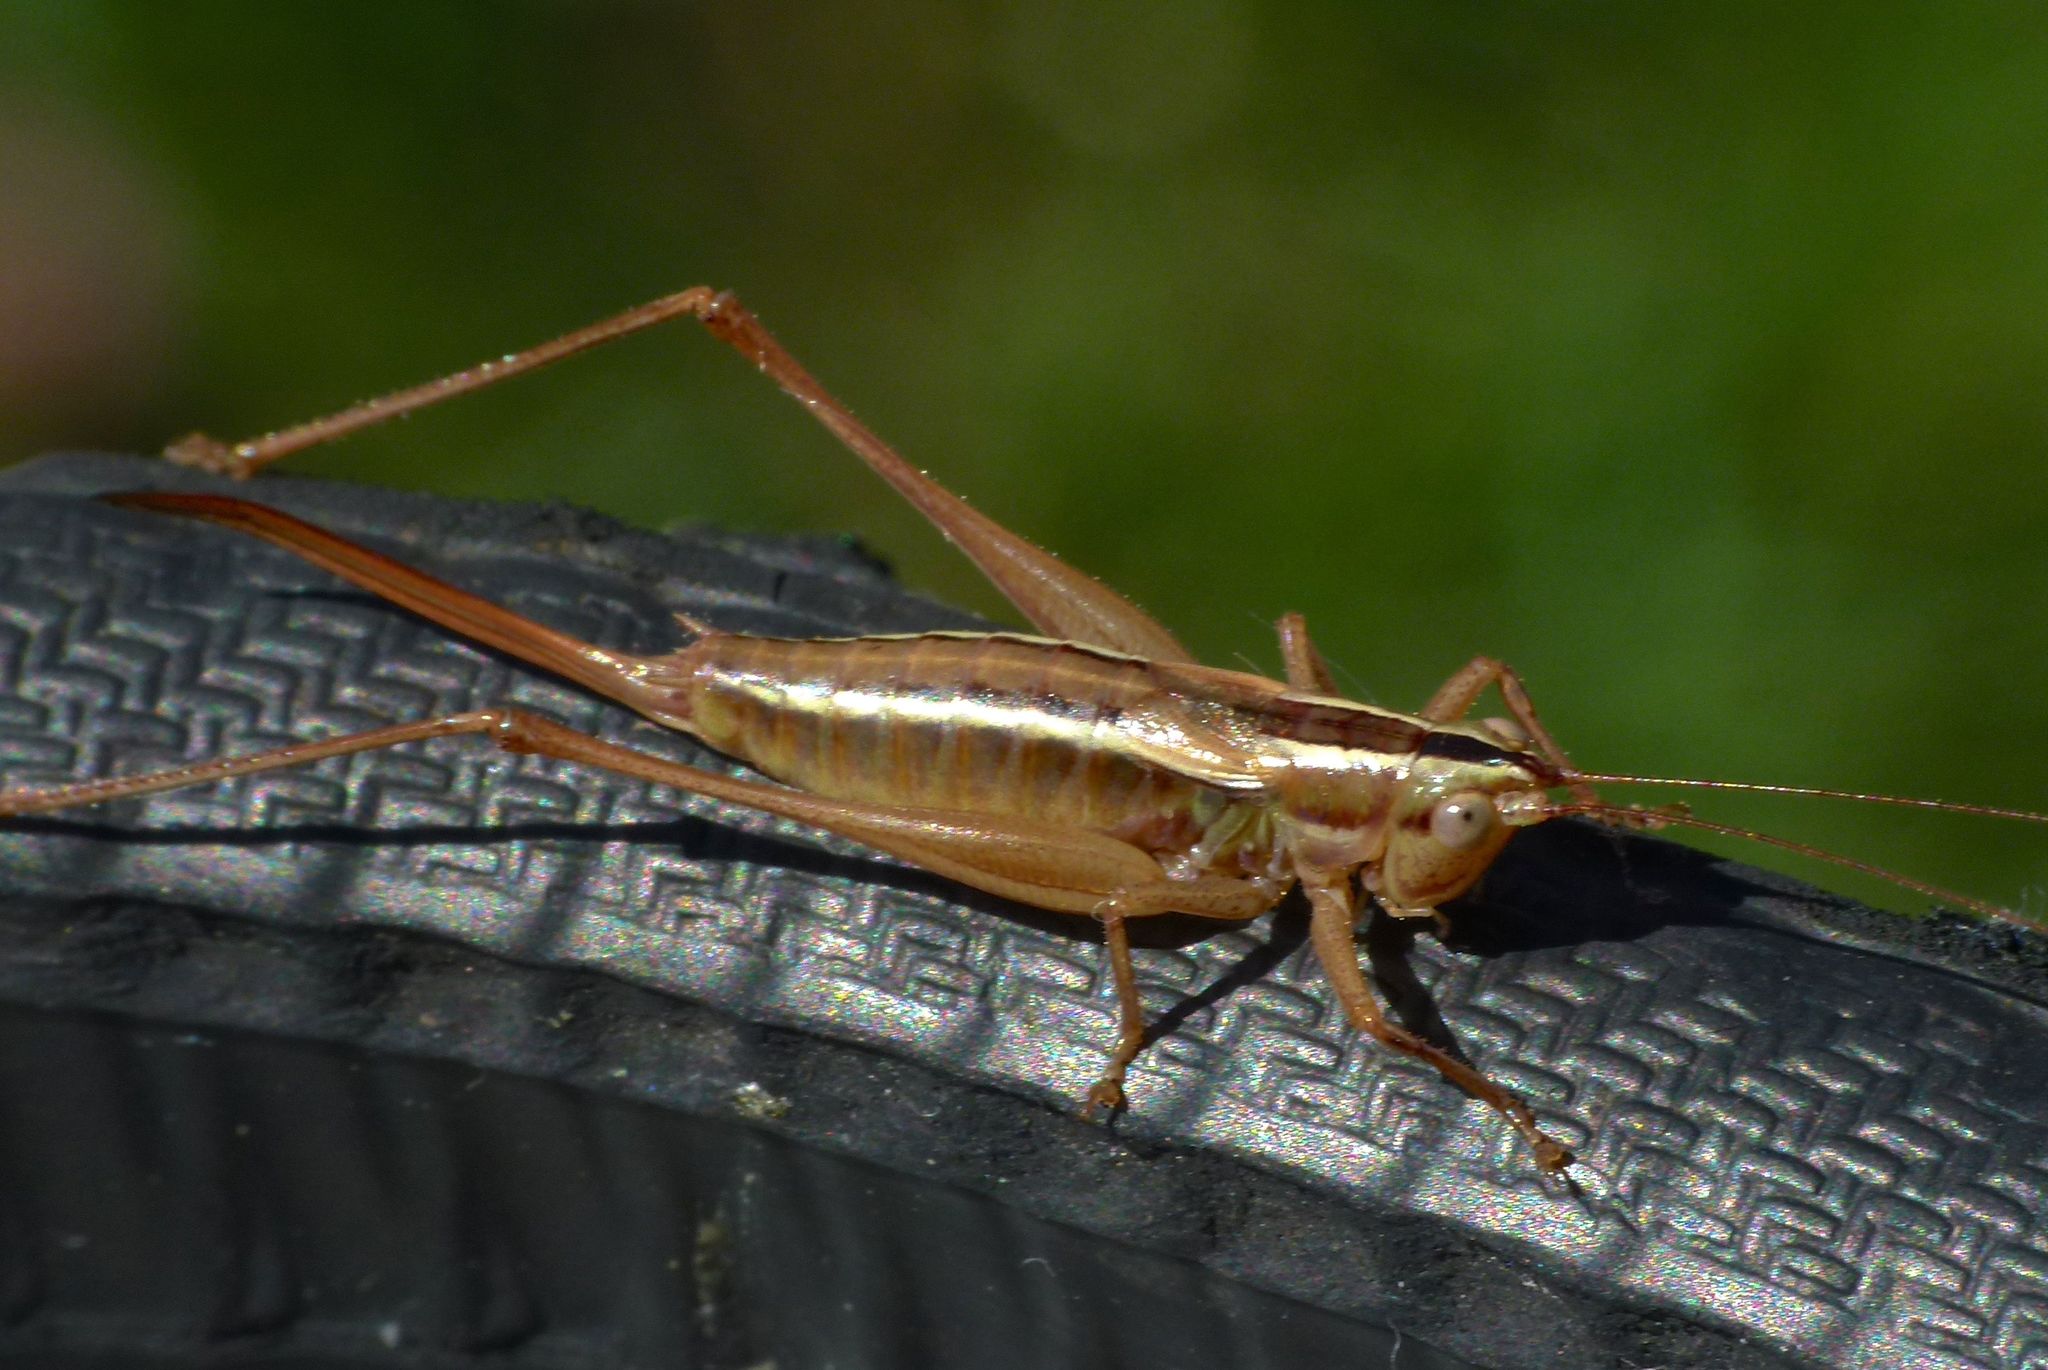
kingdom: Animalia
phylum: Arthropoda
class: Insecta
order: Orthoptera
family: Tettigoniidae
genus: Conocephalus
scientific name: Conocephalus bilineatus
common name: Small meadow katydid
